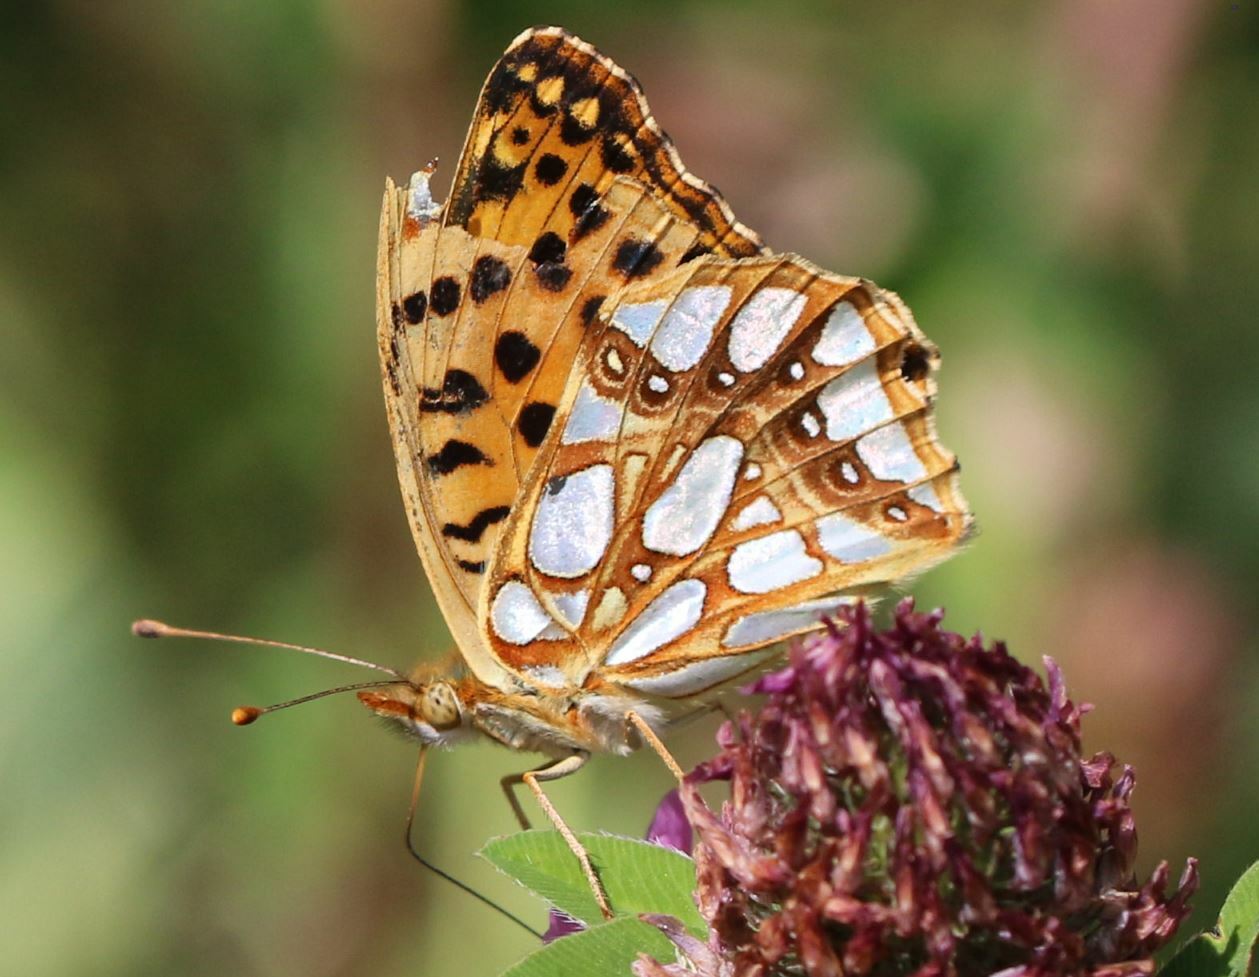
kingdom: Animalia
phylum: Arthropoda
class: Insecta
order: Lepidoptera
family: Nymphalidae
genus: Issoria
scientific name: Issoria lathonia
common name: Queen of spain fritillary
